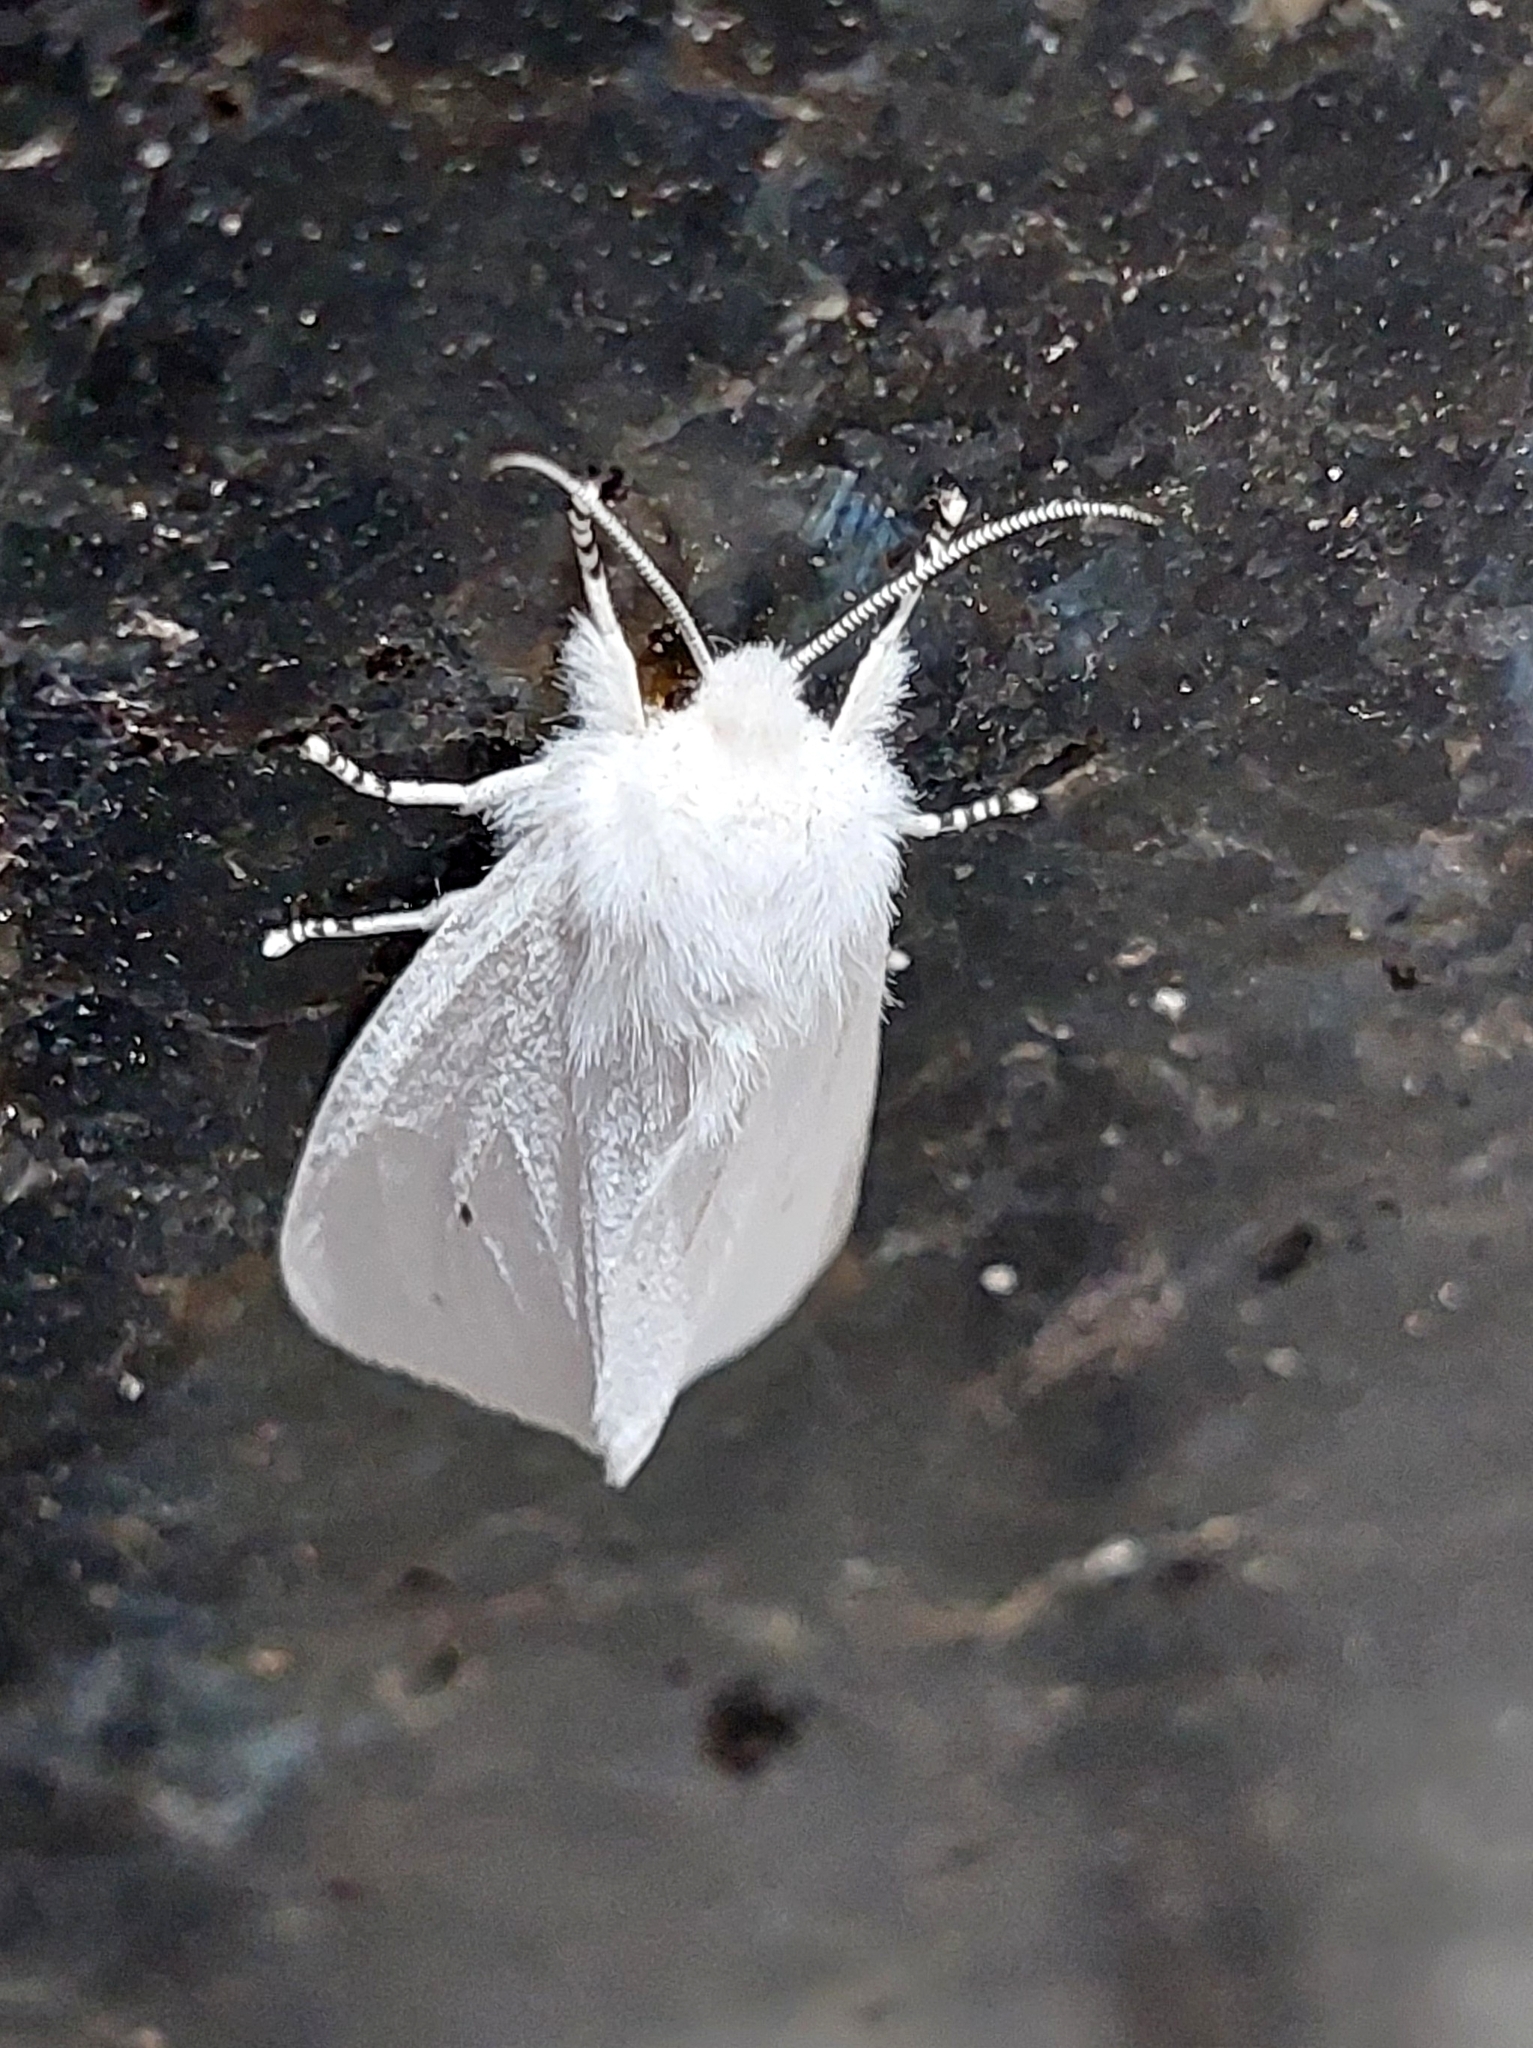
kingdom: Animalia
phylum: Arthropoda
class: Insecta
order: Lepidoptera
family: Erebidae
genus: Spilosoma
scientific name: Spilosoma virginica
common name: Virginia tiger moth
